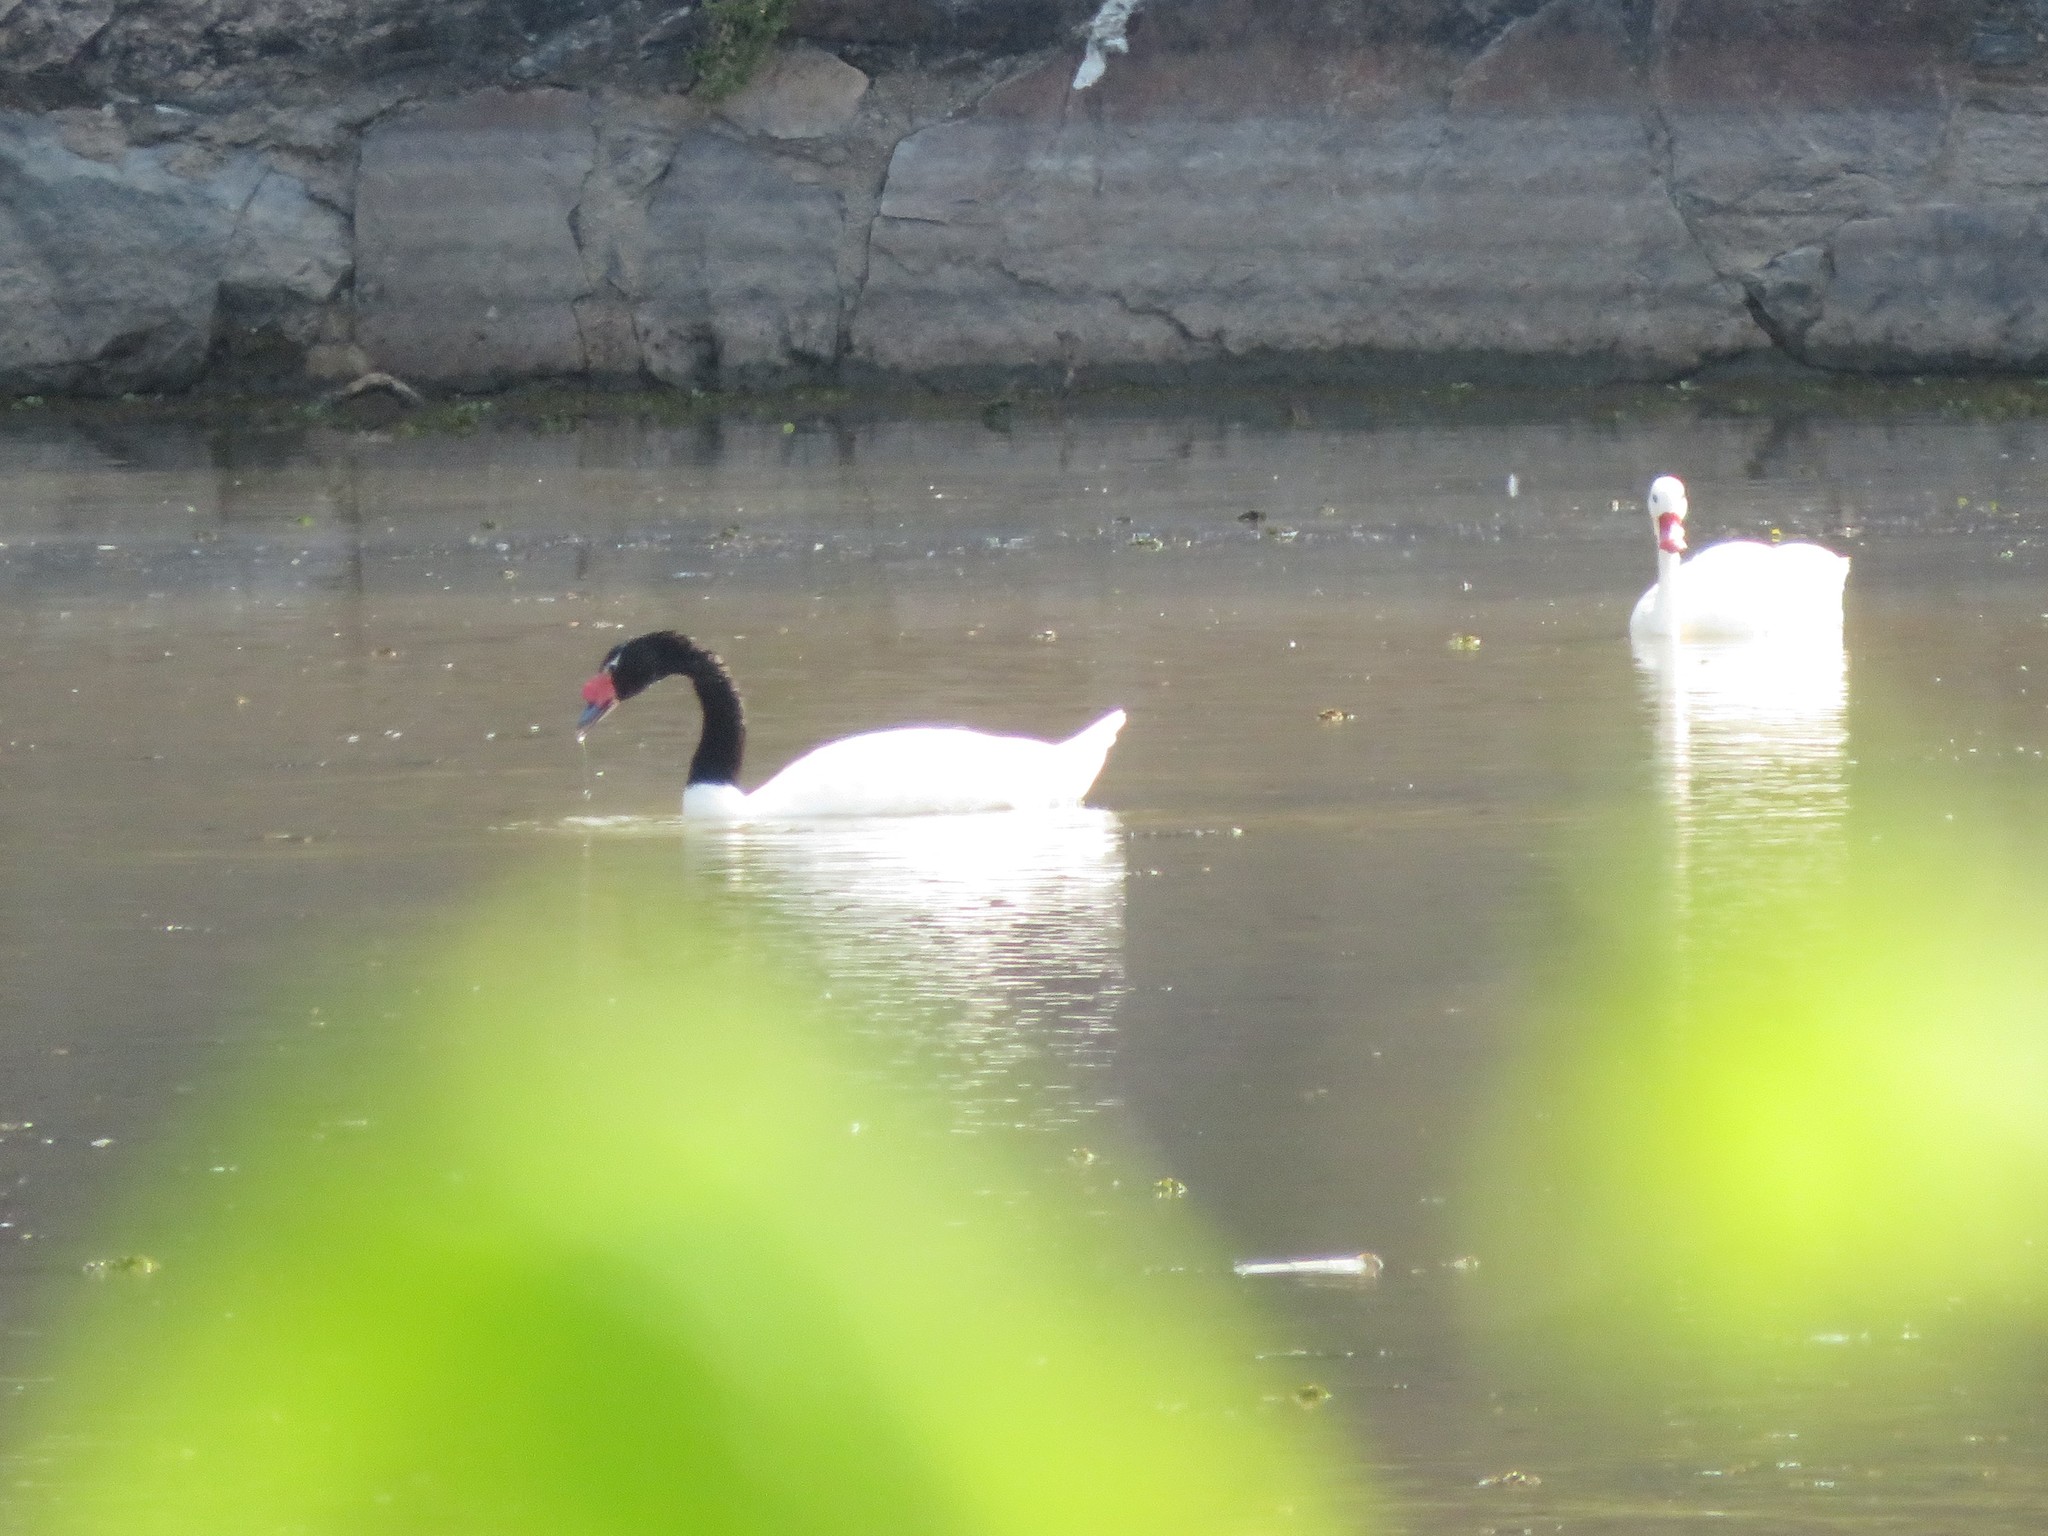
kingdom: Animalia
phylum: Chordata
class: Aves
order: Anseriformes
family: Anatidae
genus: Cygnus
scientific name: Cygnus melancoryphus
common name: Black-necked swan
